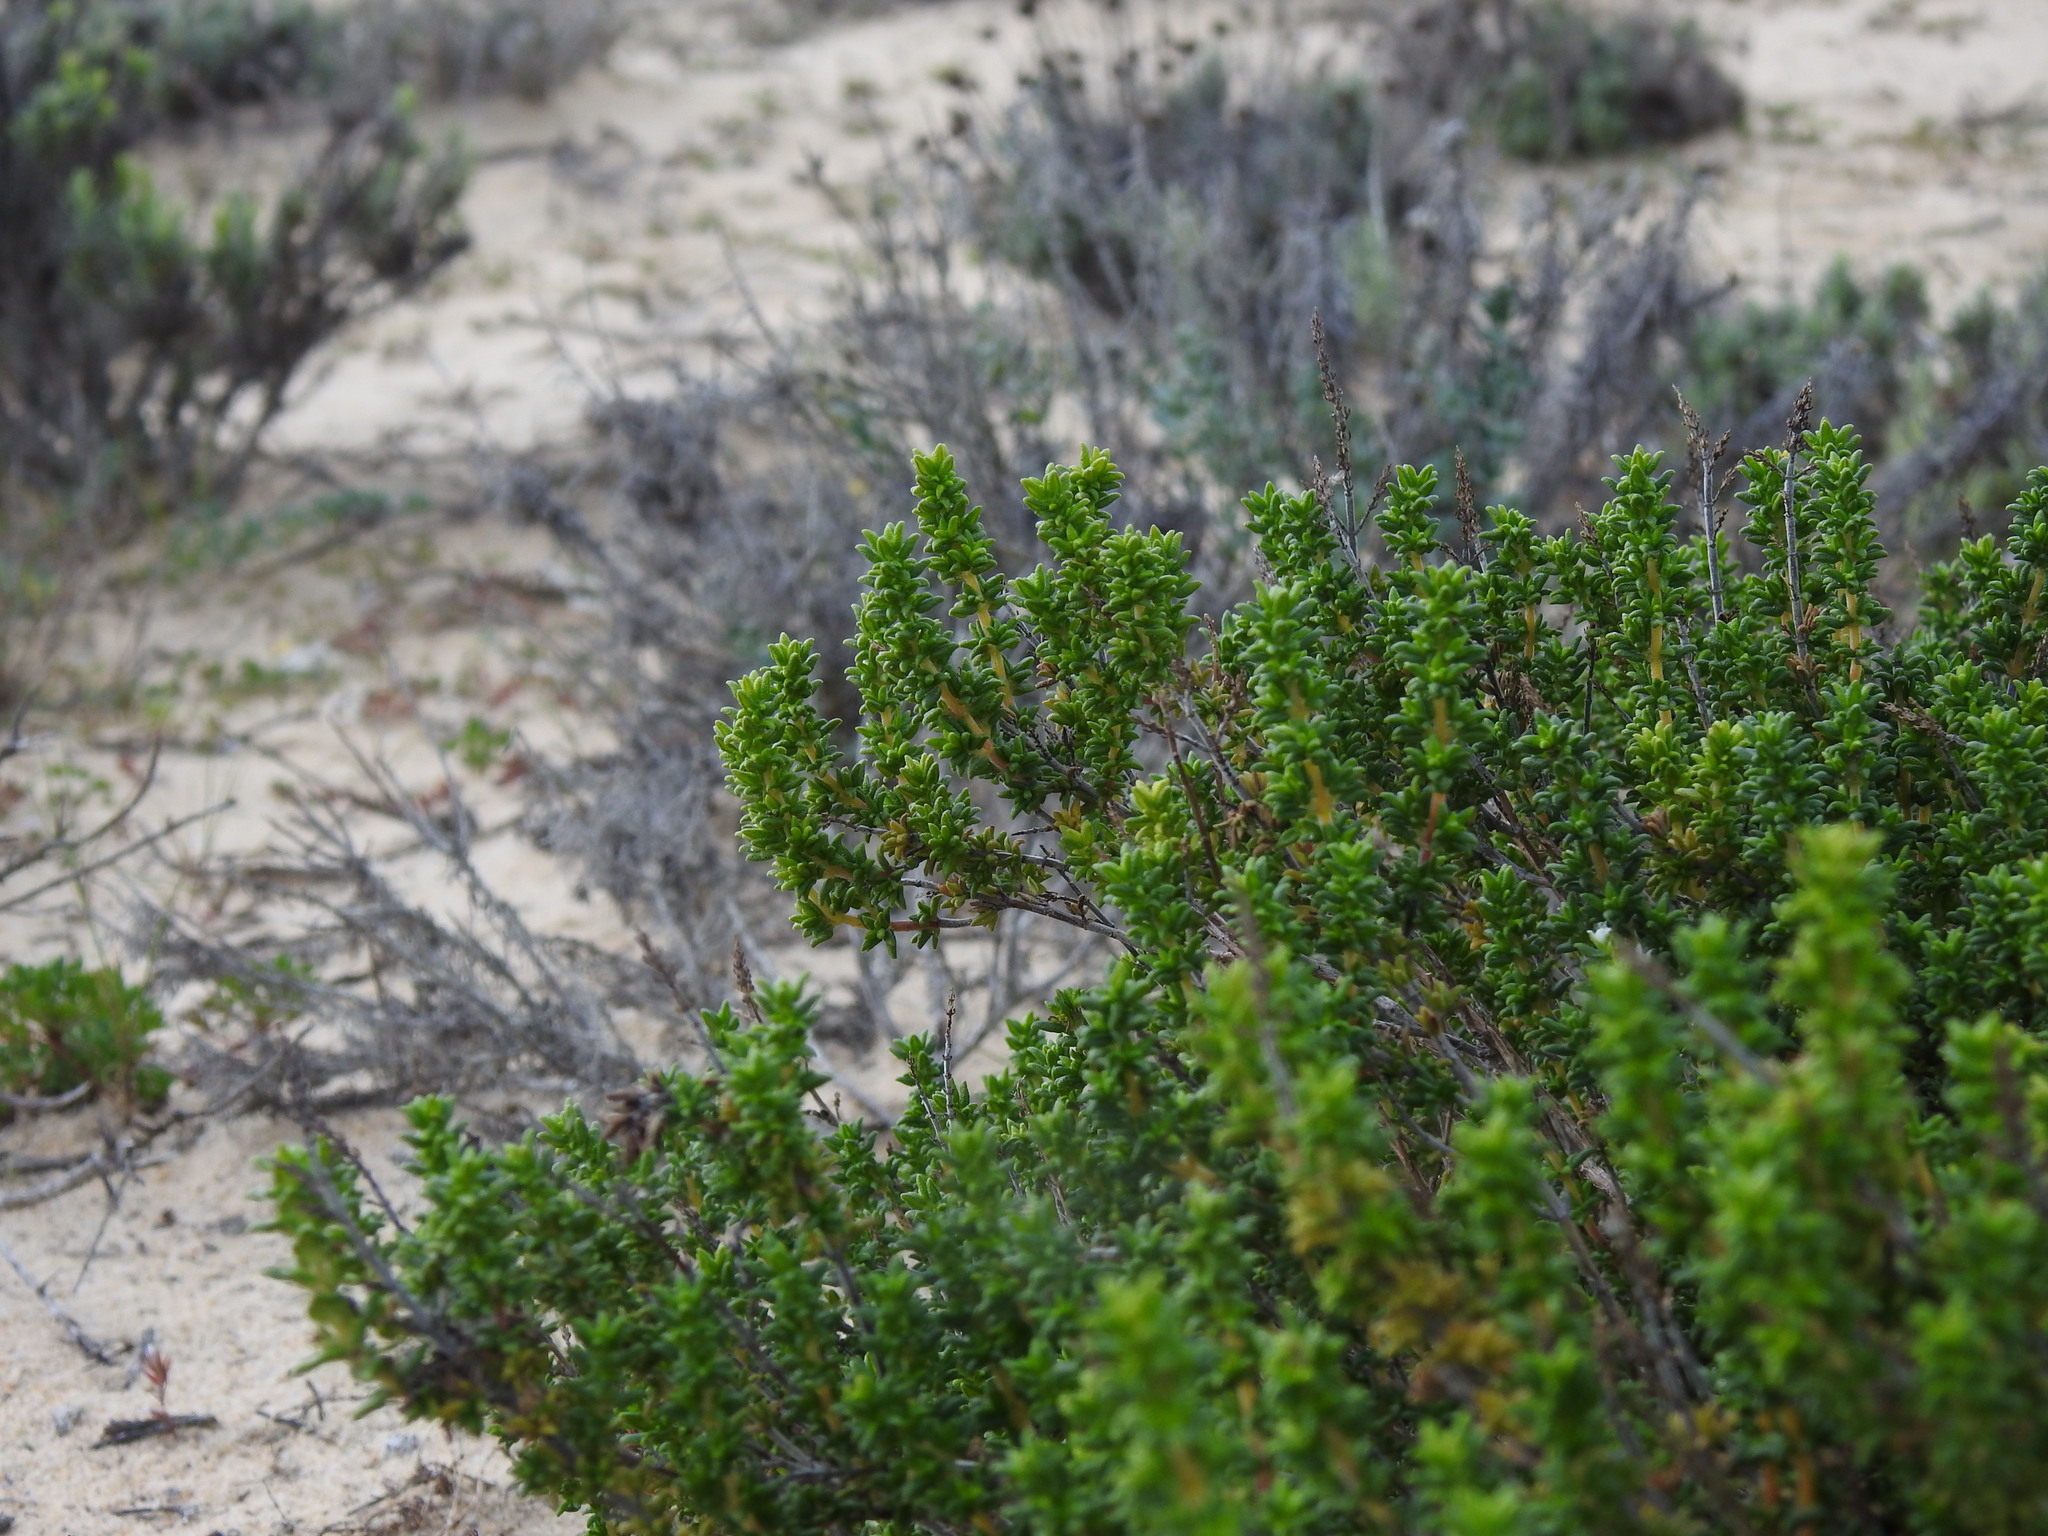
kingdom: Plantae
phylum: Tracheophyta
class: Magnoliopsida
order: Lamiales
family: Lamiaceae
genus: Thymus
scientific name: Thymus carnosus
